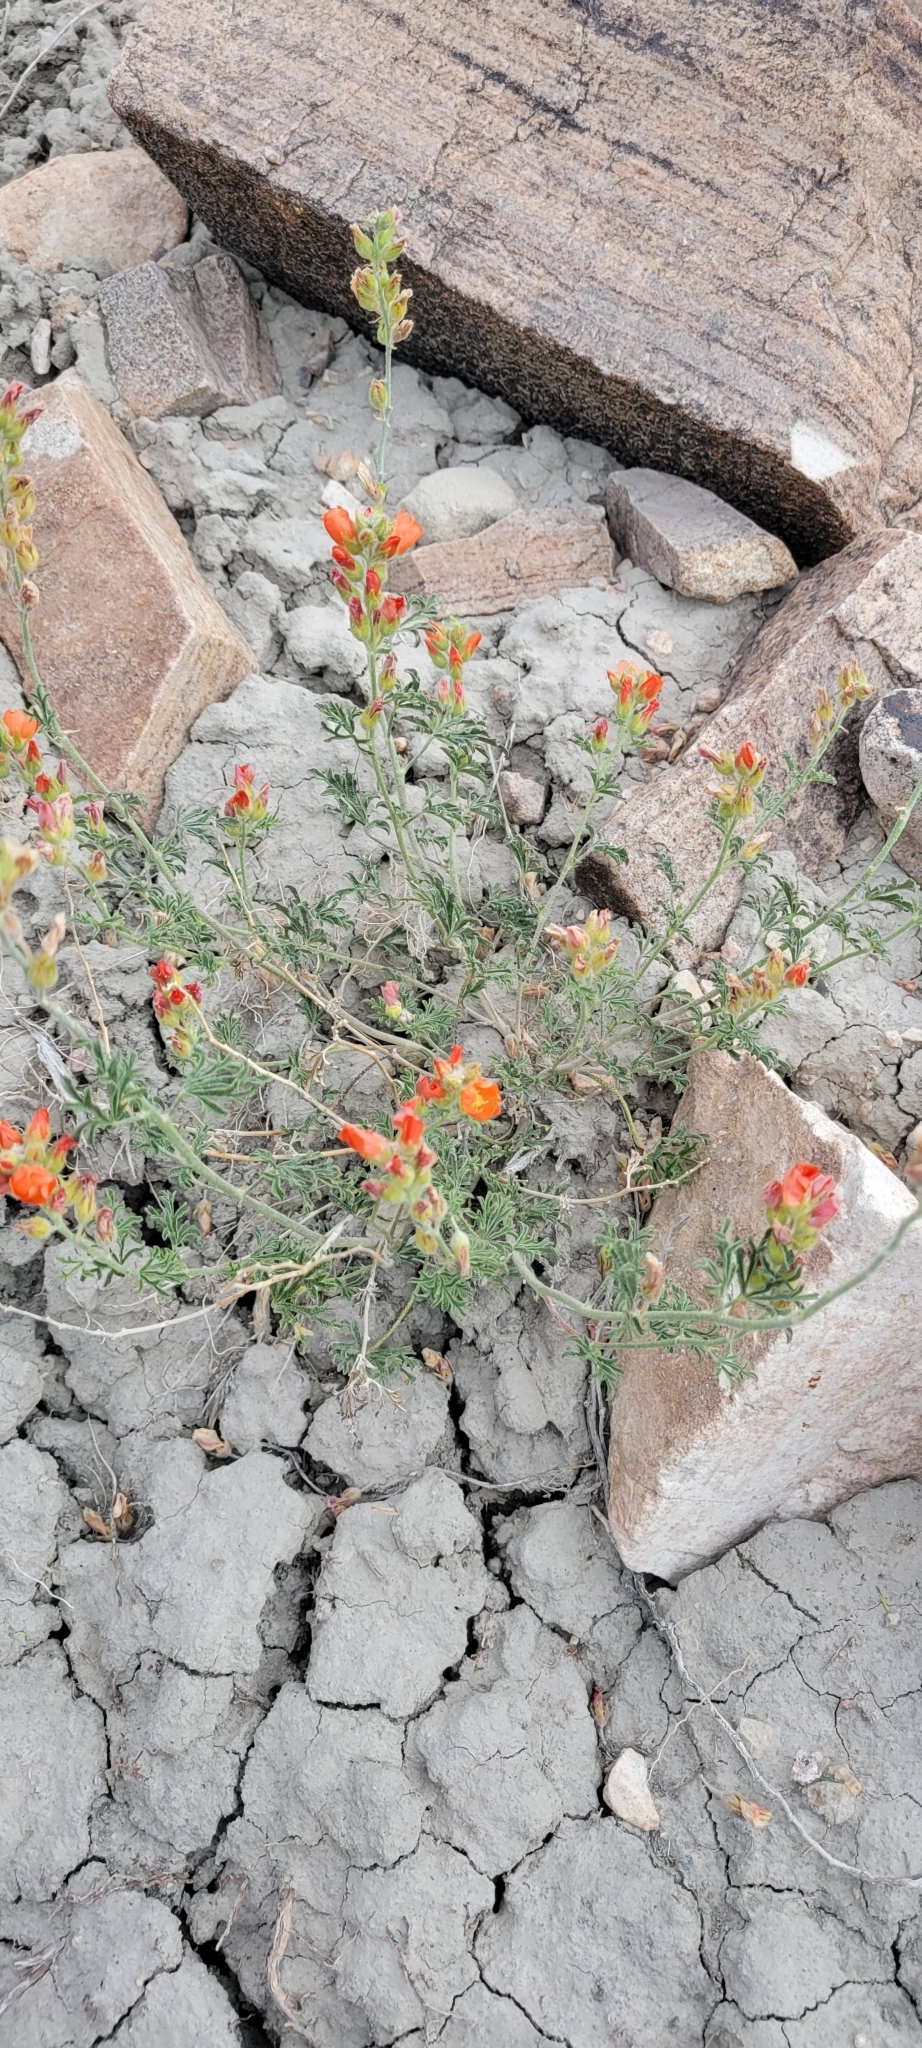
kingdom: Plantae
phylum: Tracheophyta
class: Magnoliopsida
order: Malvales
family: Malvaceae
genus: Sphaeralcea
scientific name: Sphaeralcea coccinea
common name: Moss-rose
